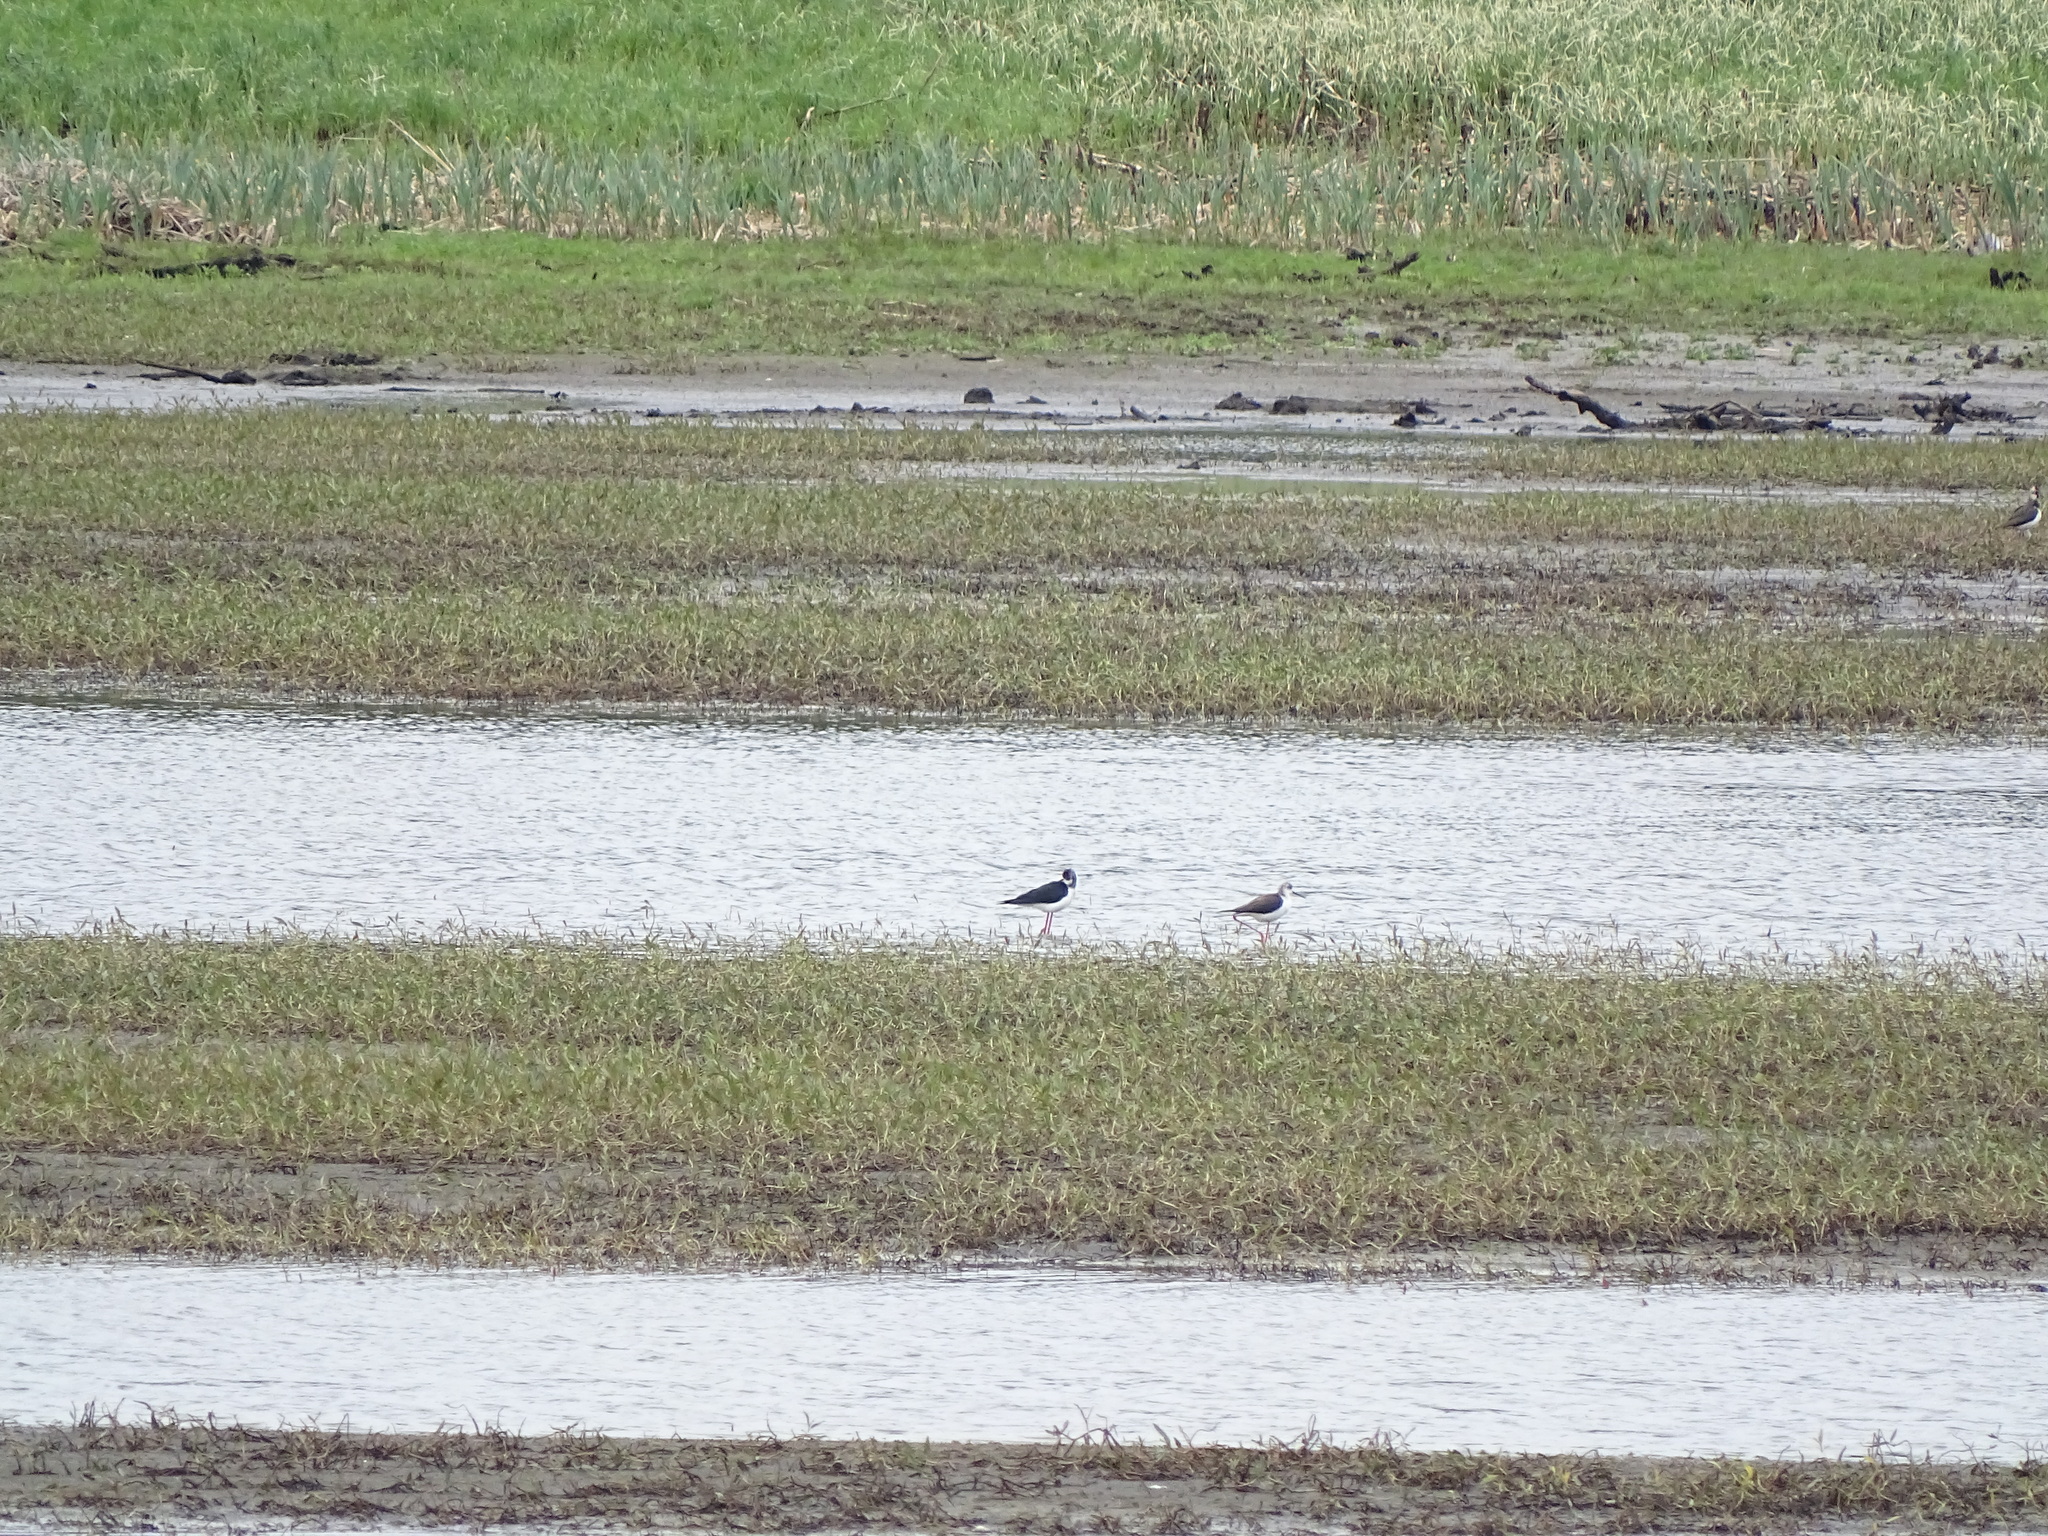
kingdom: Animalia
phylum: Chordata
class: Aves
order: Charadriiformes
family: Recurvirostridae
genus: Himantopus
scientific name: Himantopus himantopus
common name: Black-winged stilt
